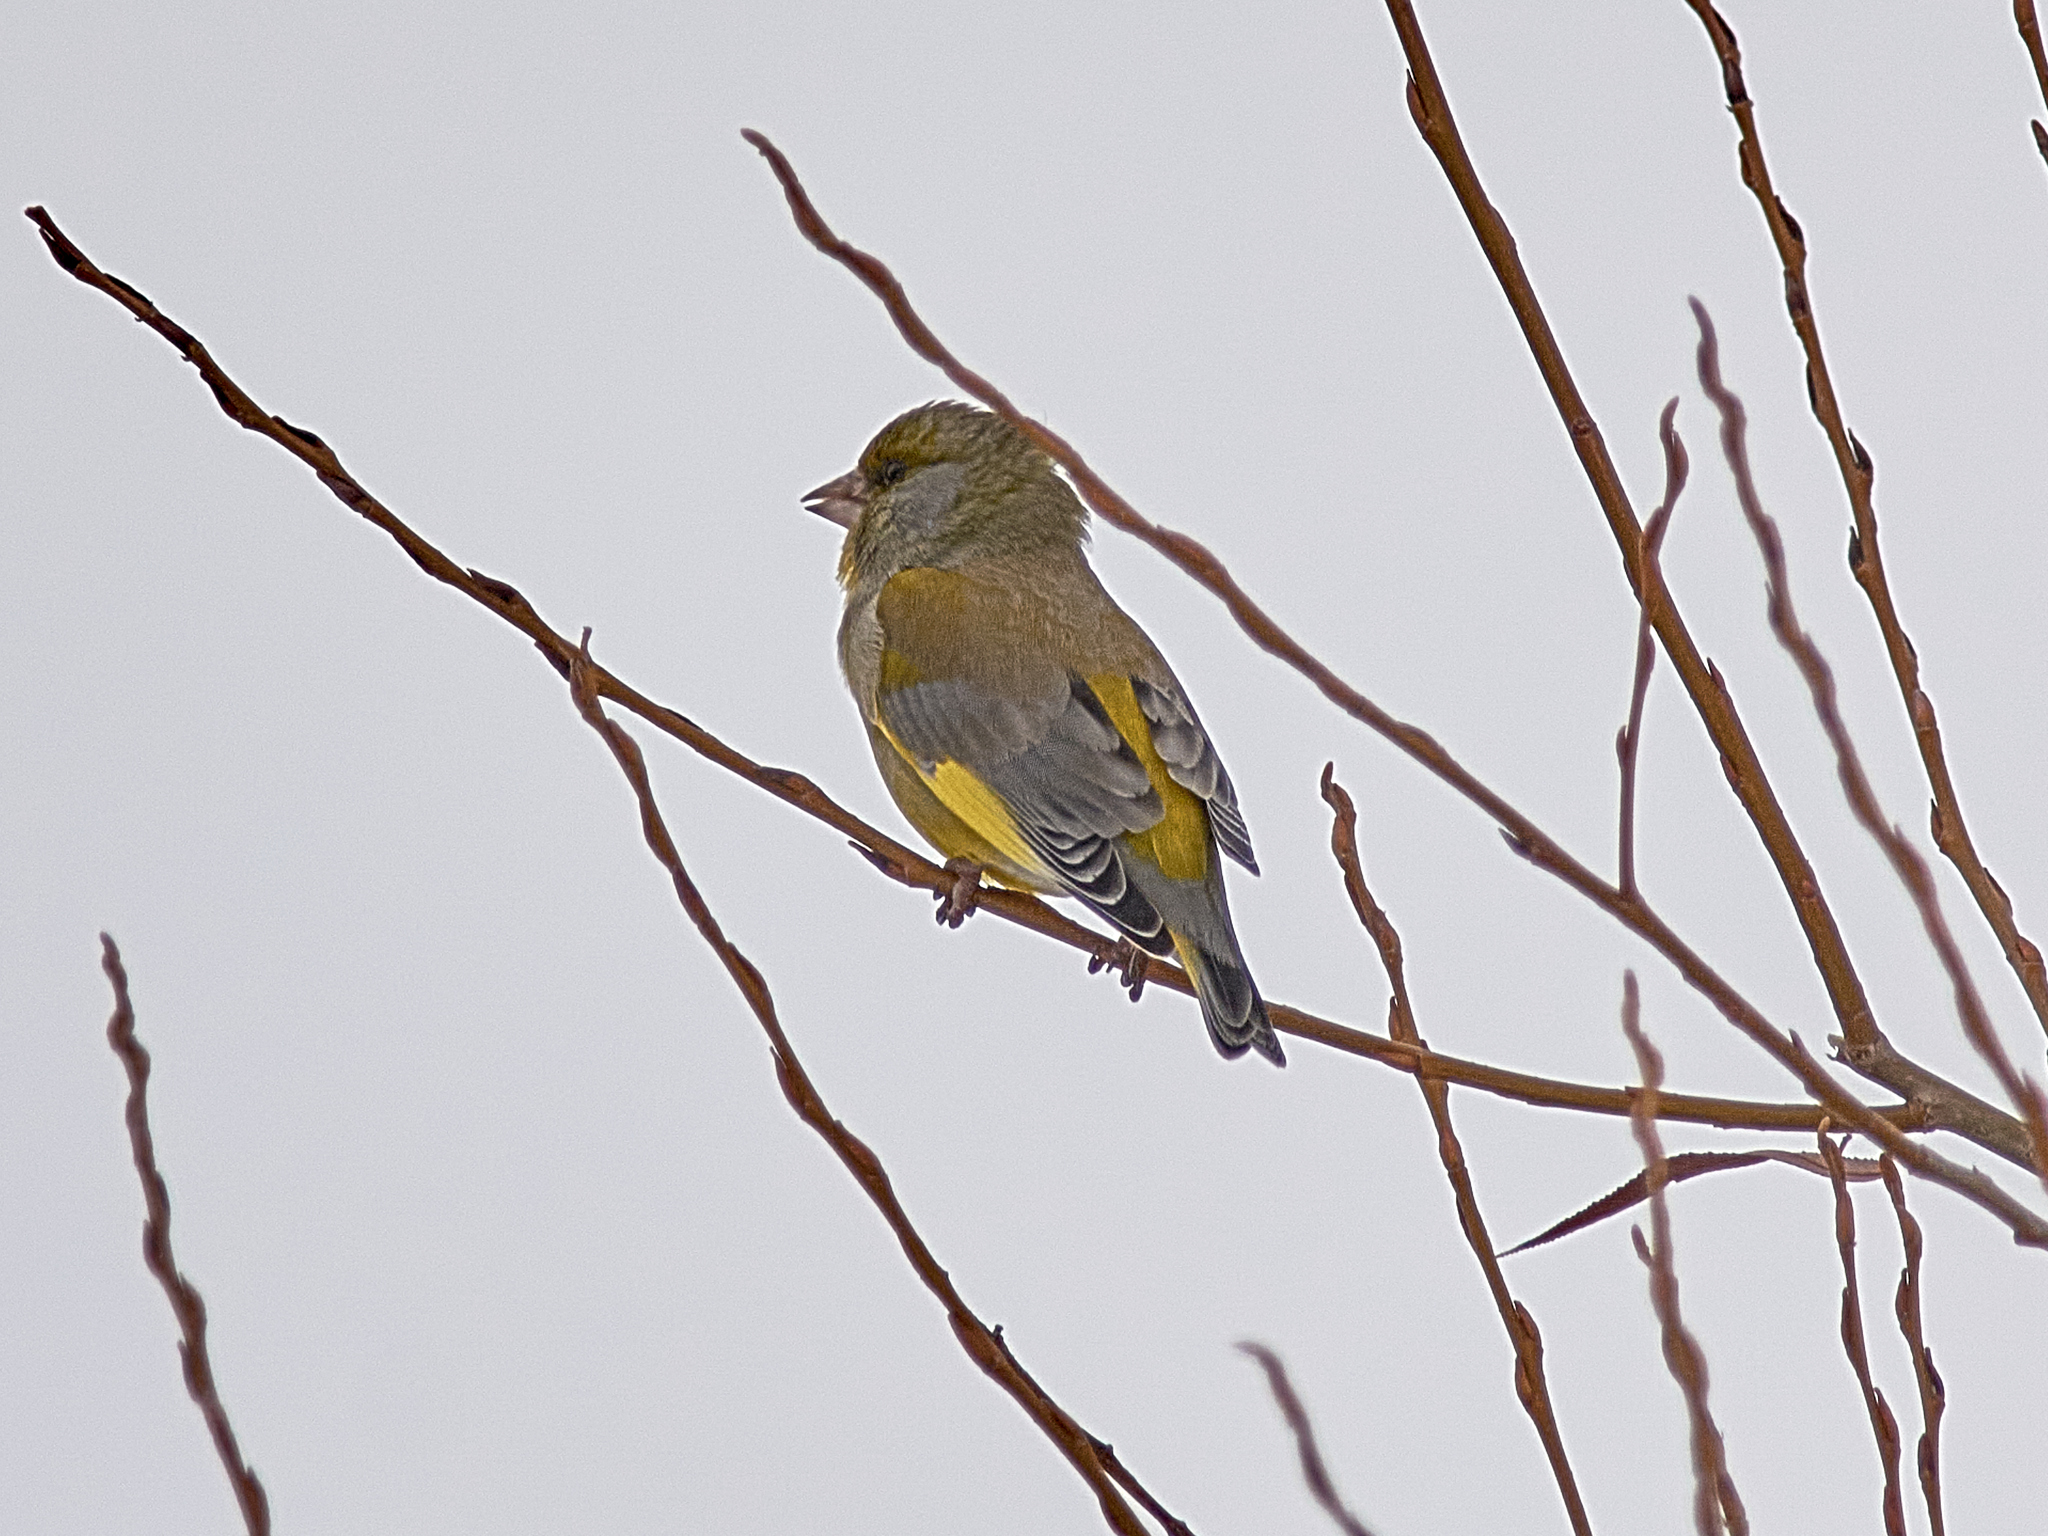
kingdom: Plantae
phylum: Tracheophyta
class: Liliopsida
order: Poales
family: Poaceae
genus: Chloris
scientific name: Chloris chloris
